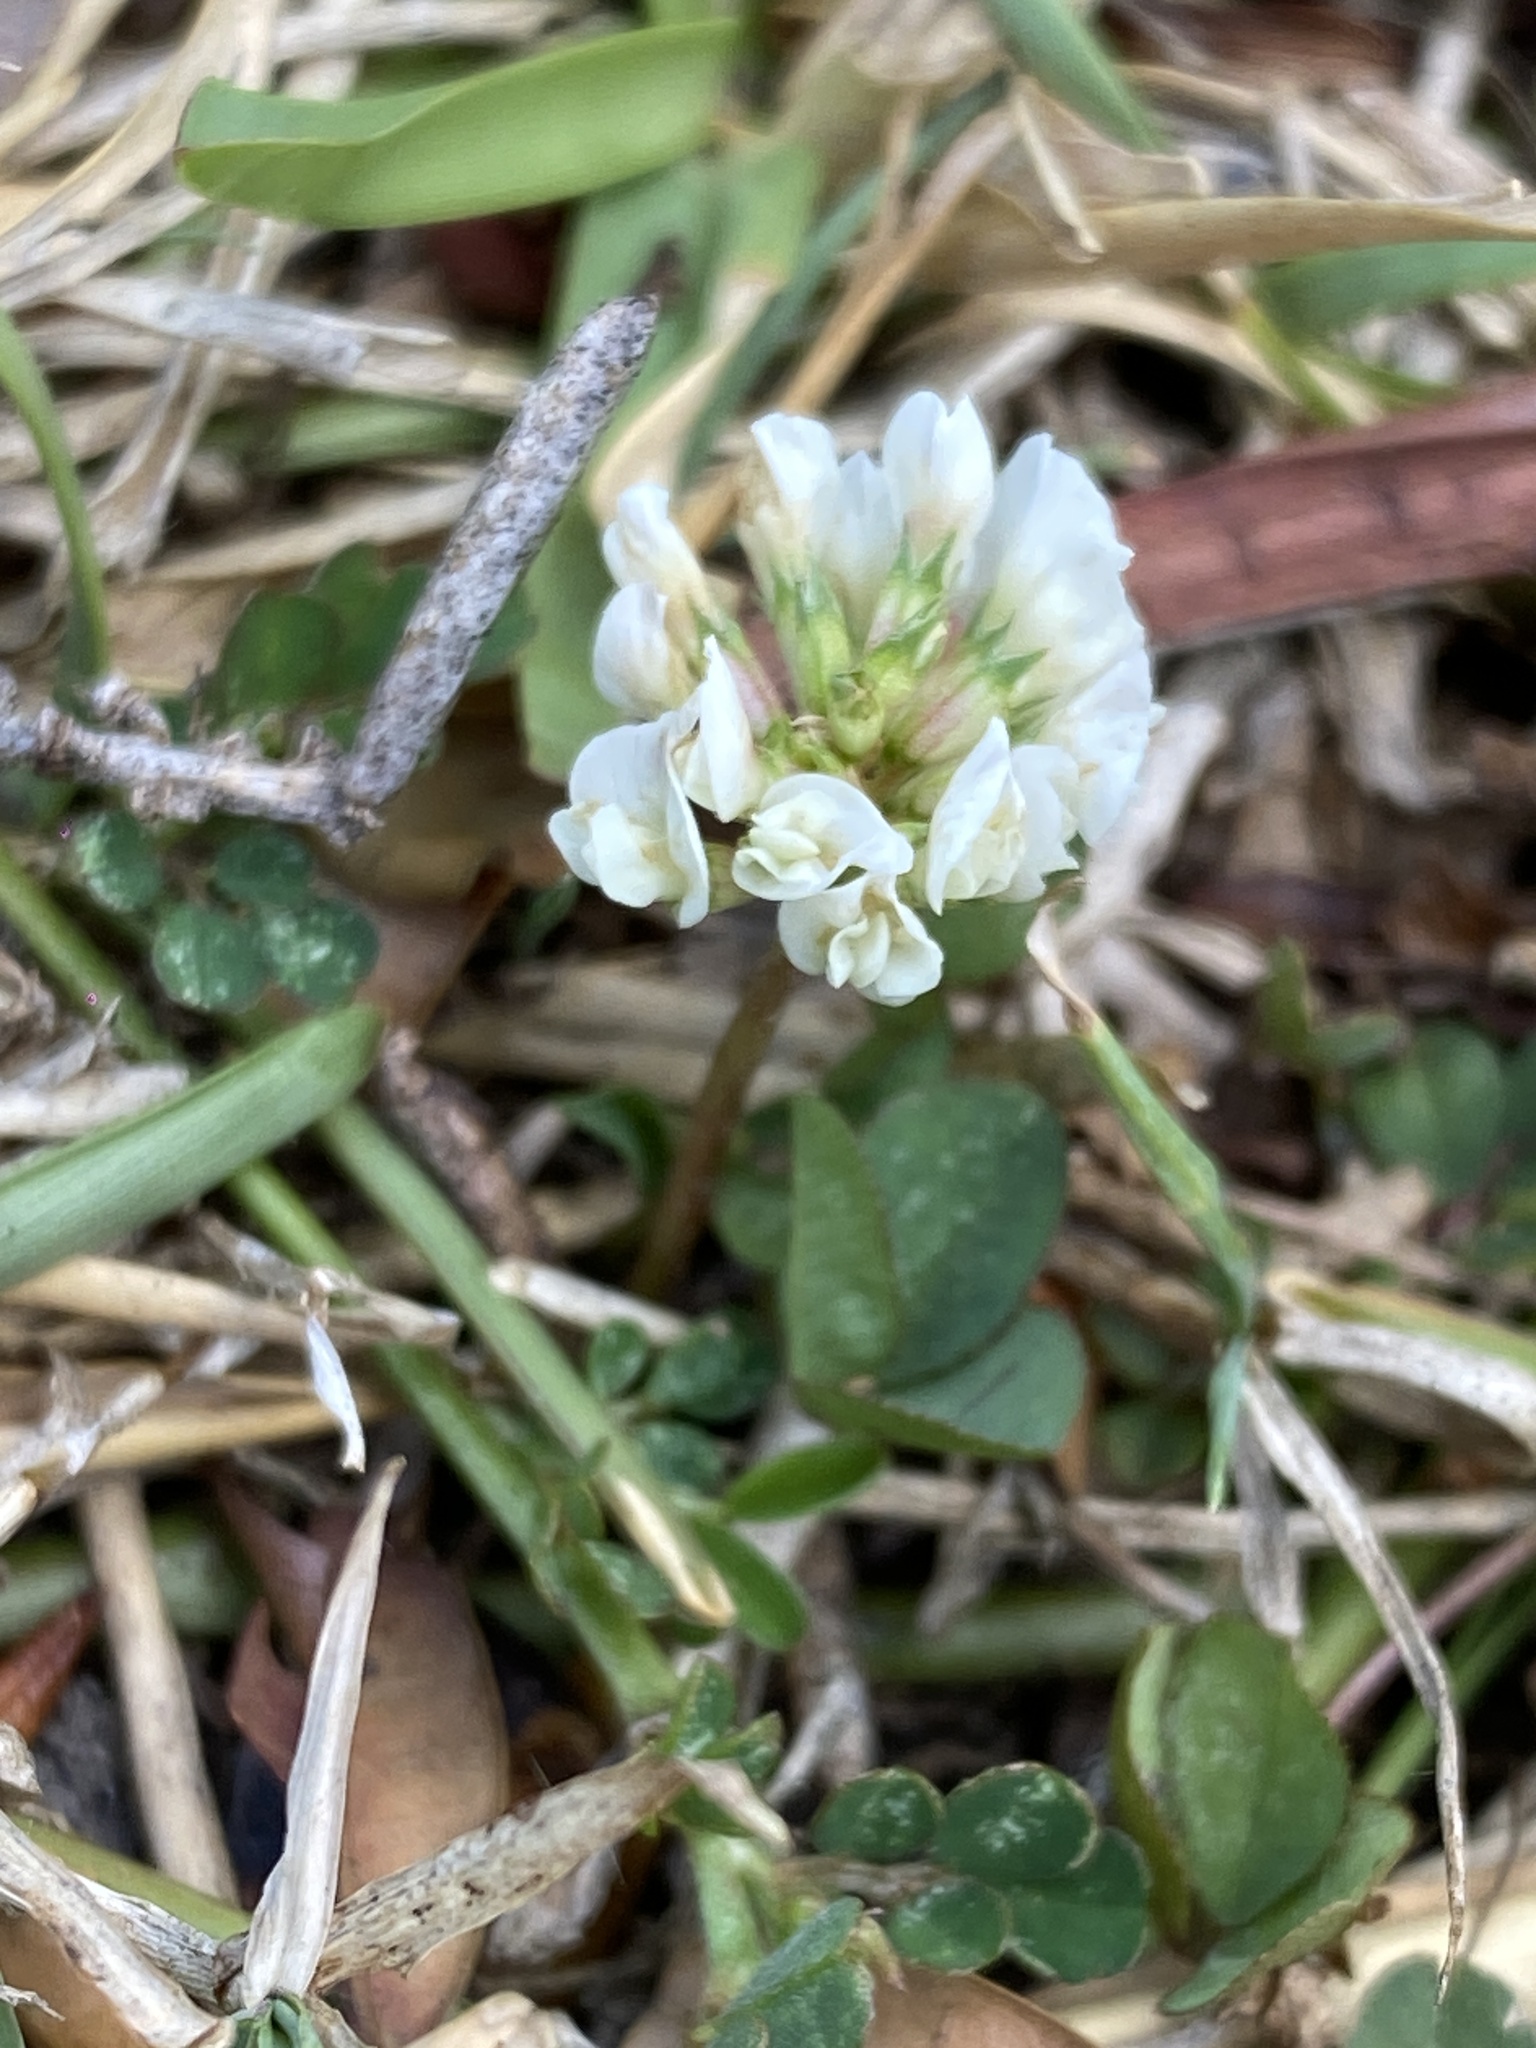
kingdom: Plantae
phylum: Tracheophyta
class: Magnoliopsida
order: Fabales
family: Fabaceae
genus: Trifolium
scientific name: Trifolium repens
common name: White clover
